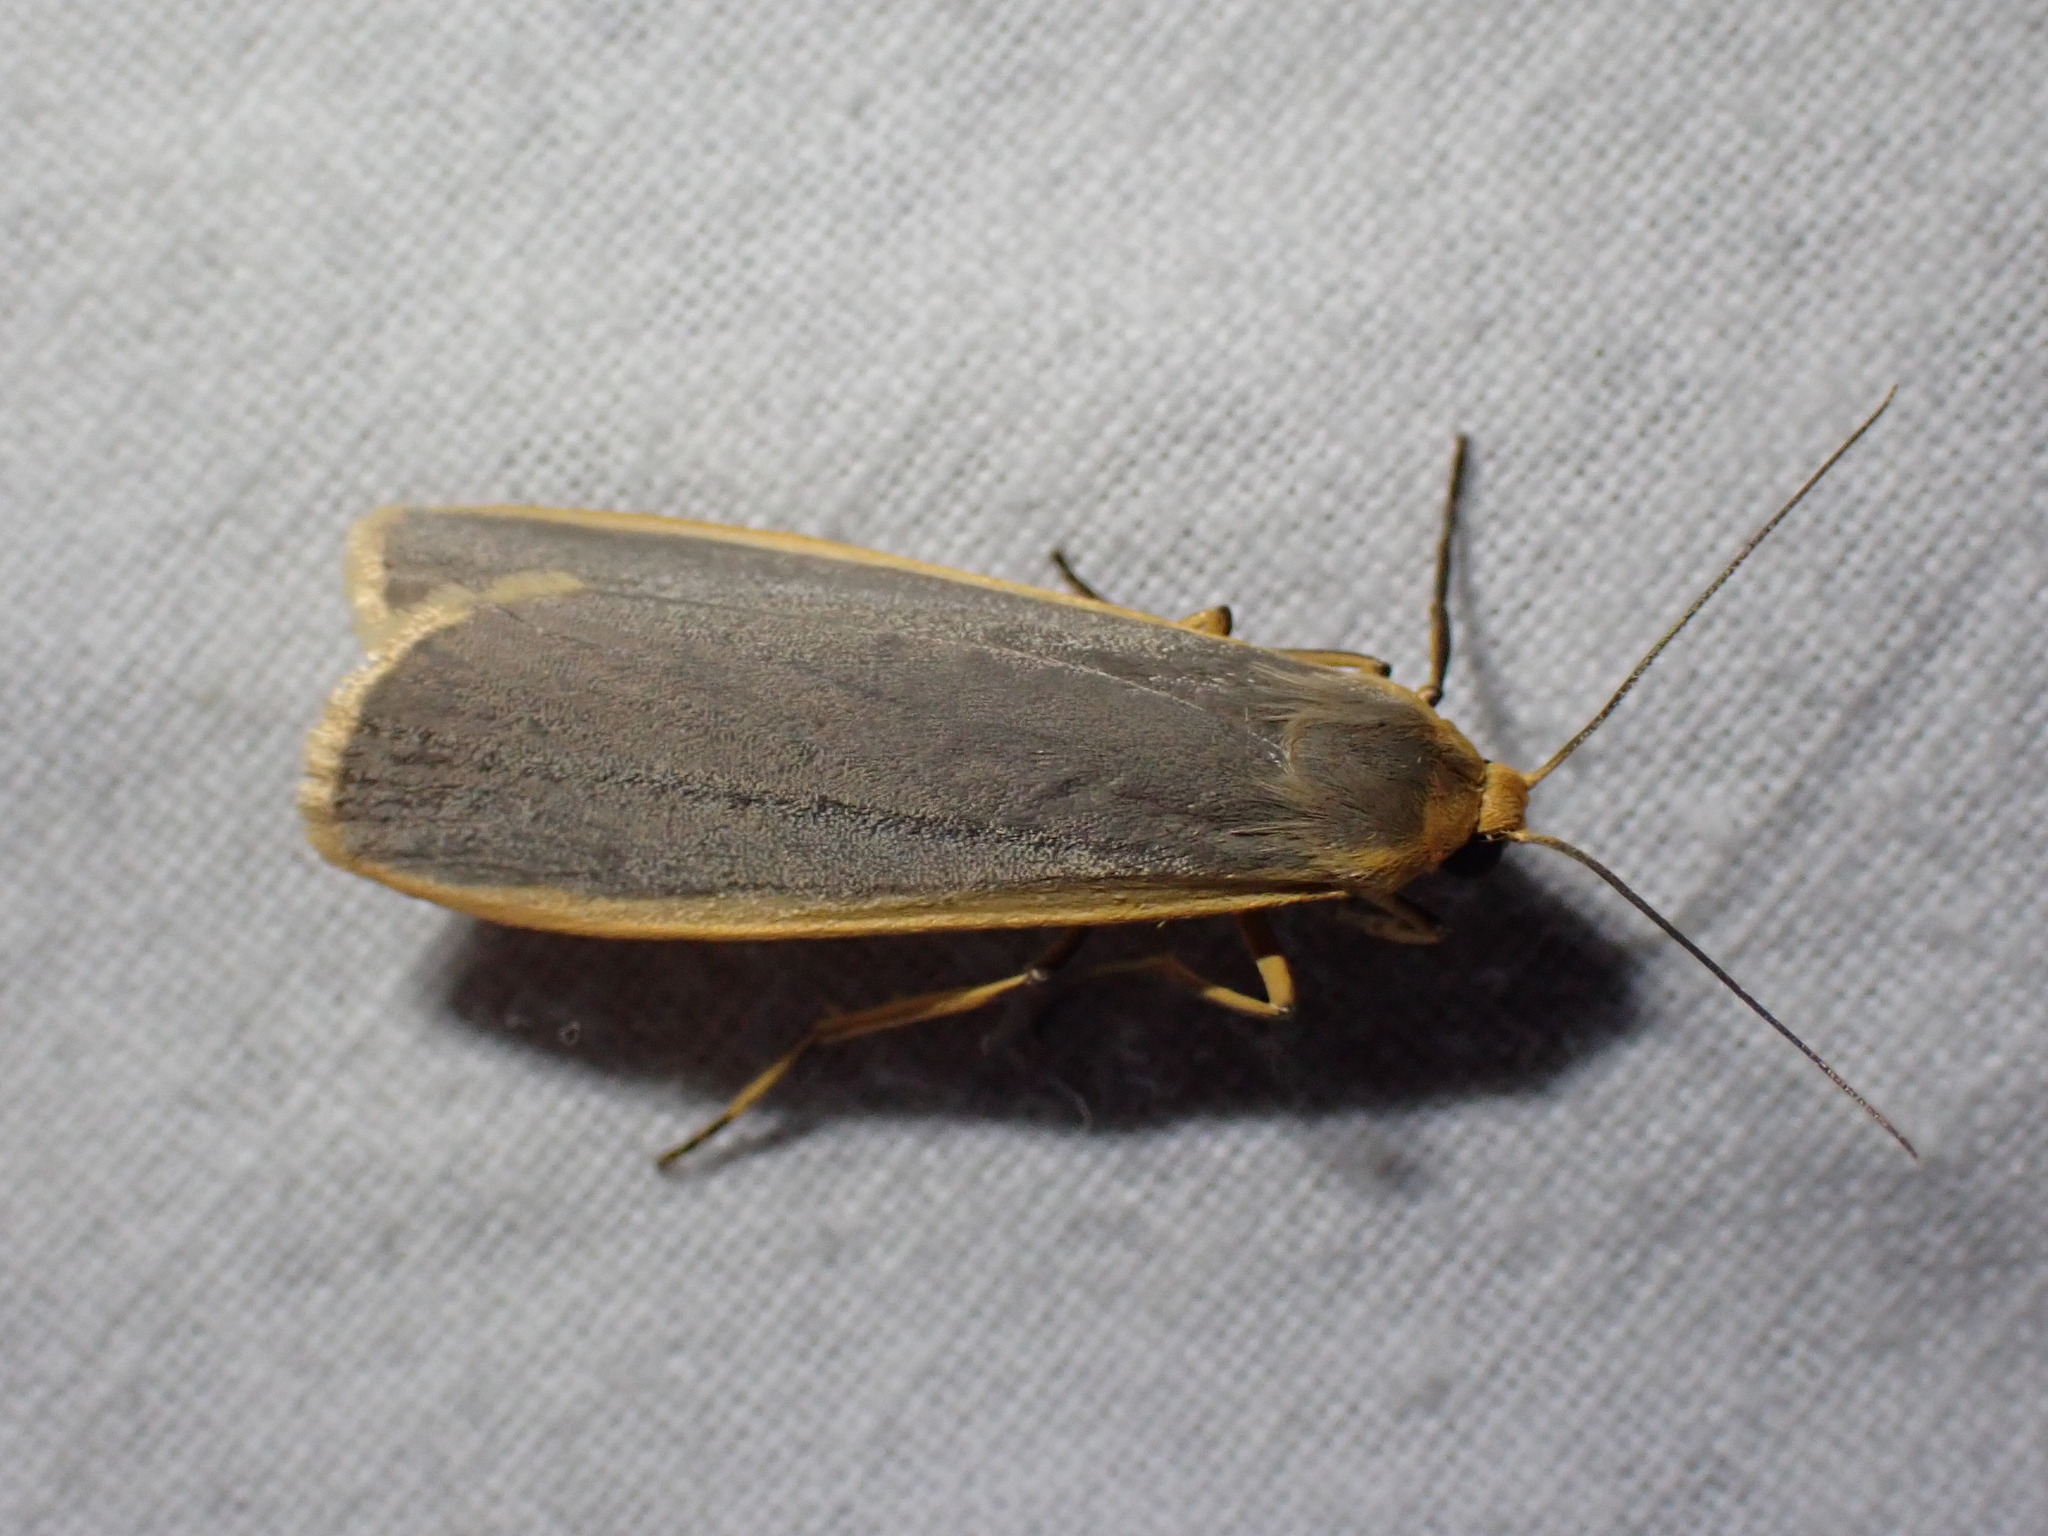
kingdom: Animalia
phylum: Arthropoda
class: Insecta
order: Lepidoptera
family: Erebidae
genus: Nyea
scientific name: Nyea lurideola
